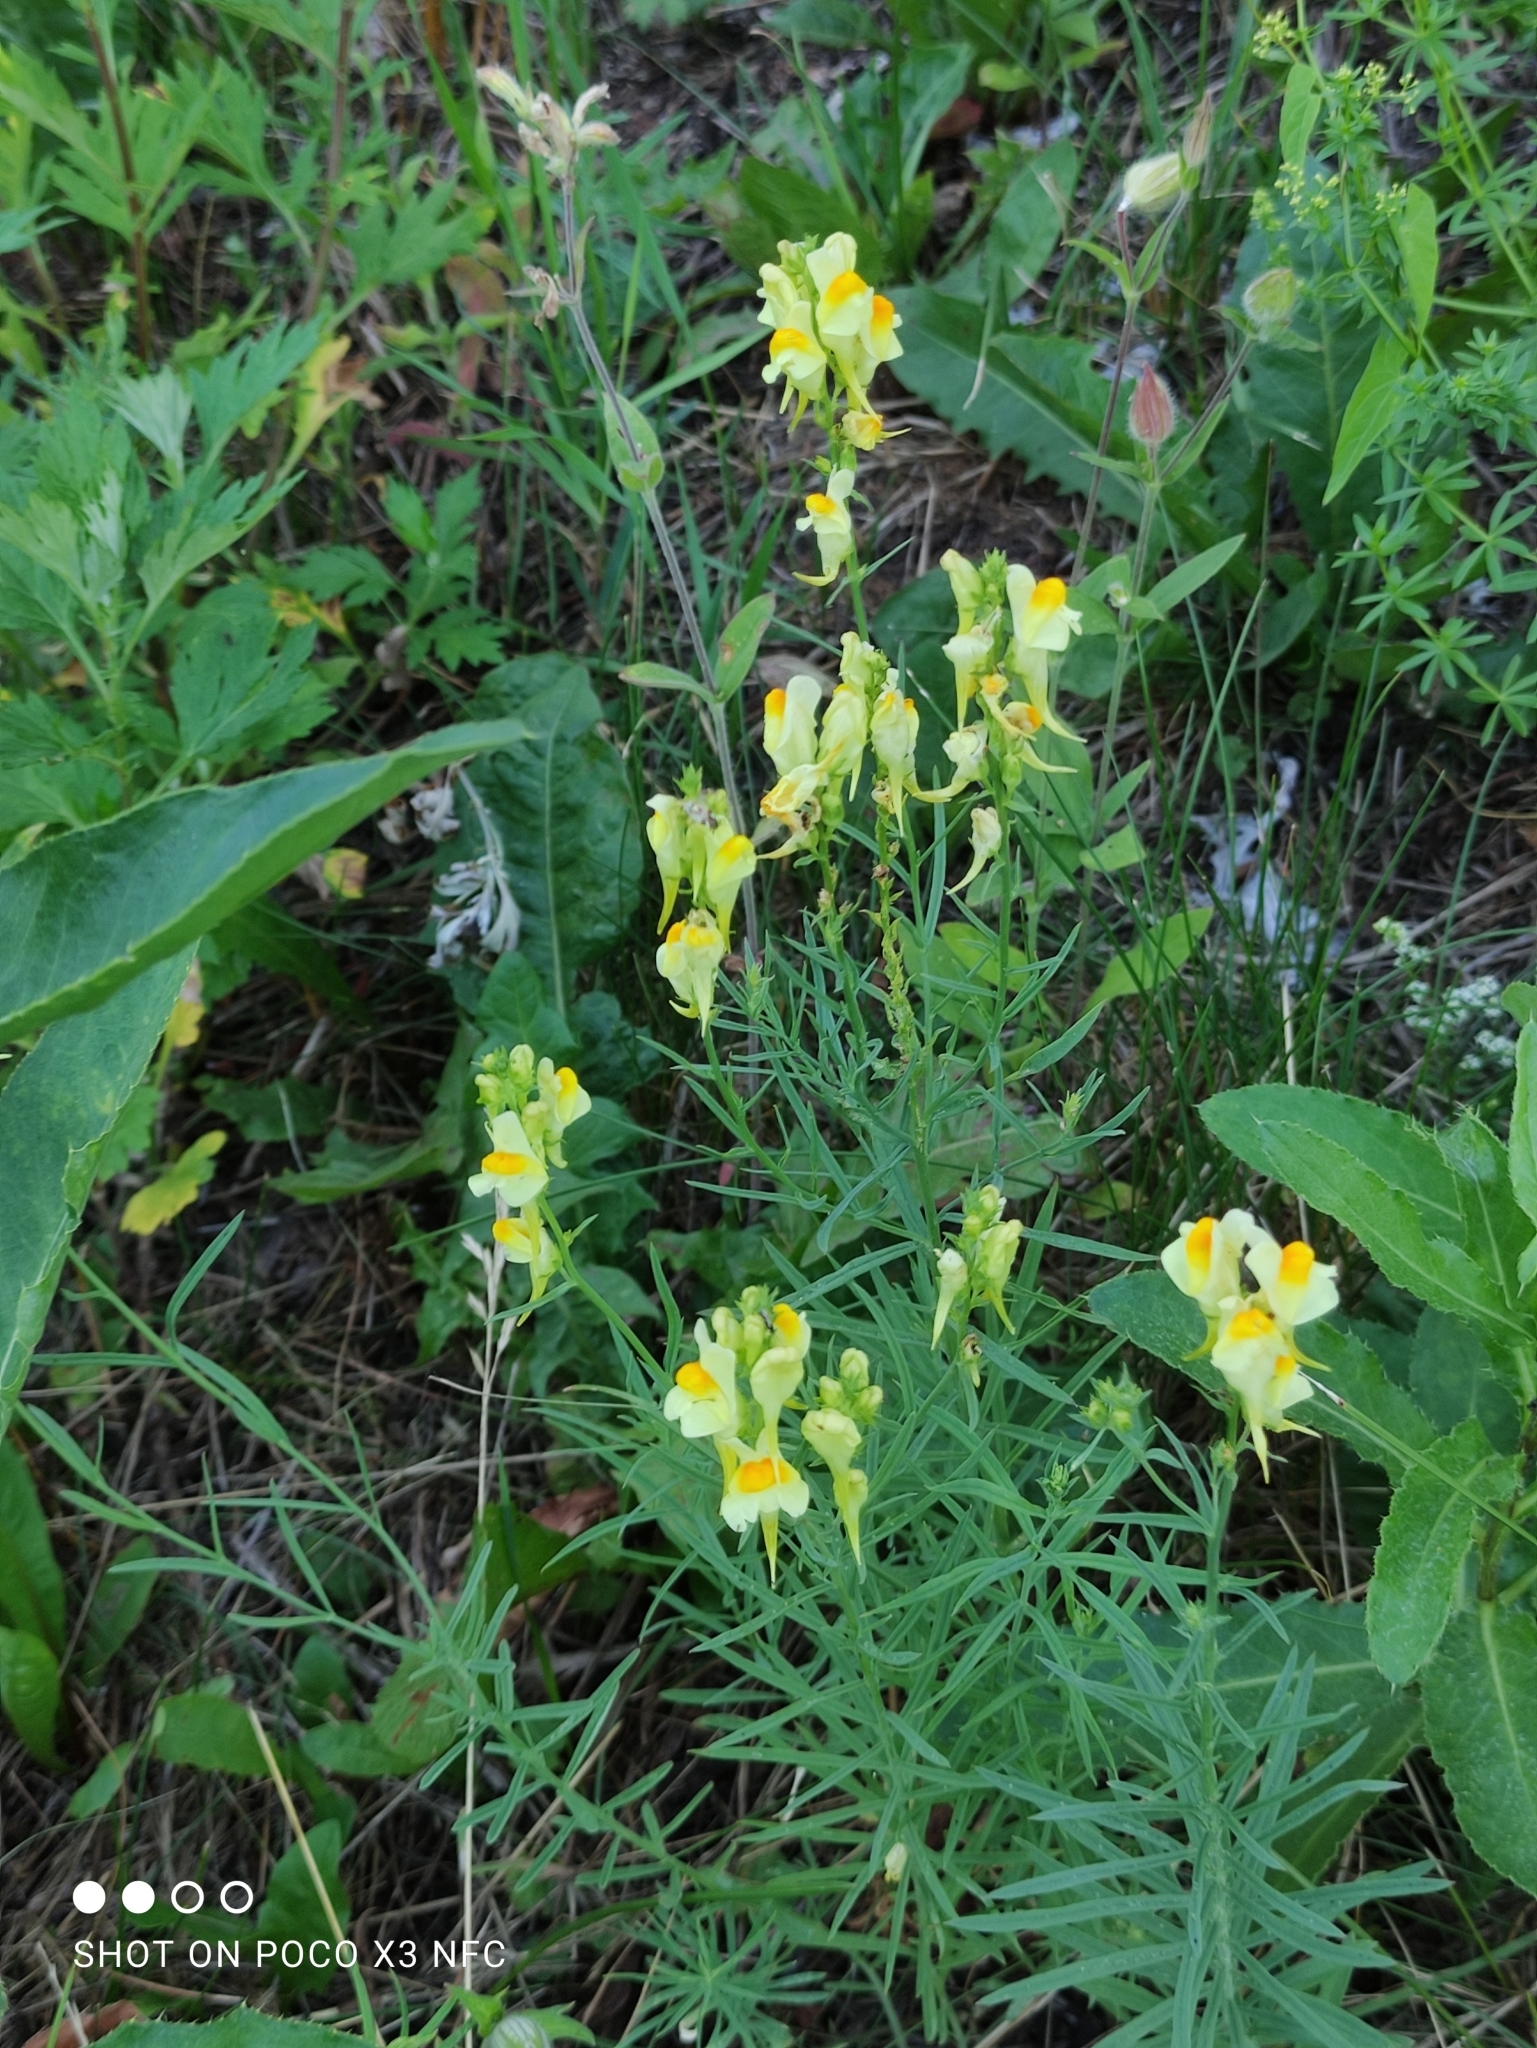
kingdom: Plantae
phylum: Tracheophyta
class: Magnoliopsida
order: Lamiales
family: Plantaginaceae
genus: Linaria
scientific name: Linaria vulgaris
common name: Butter and eggs
